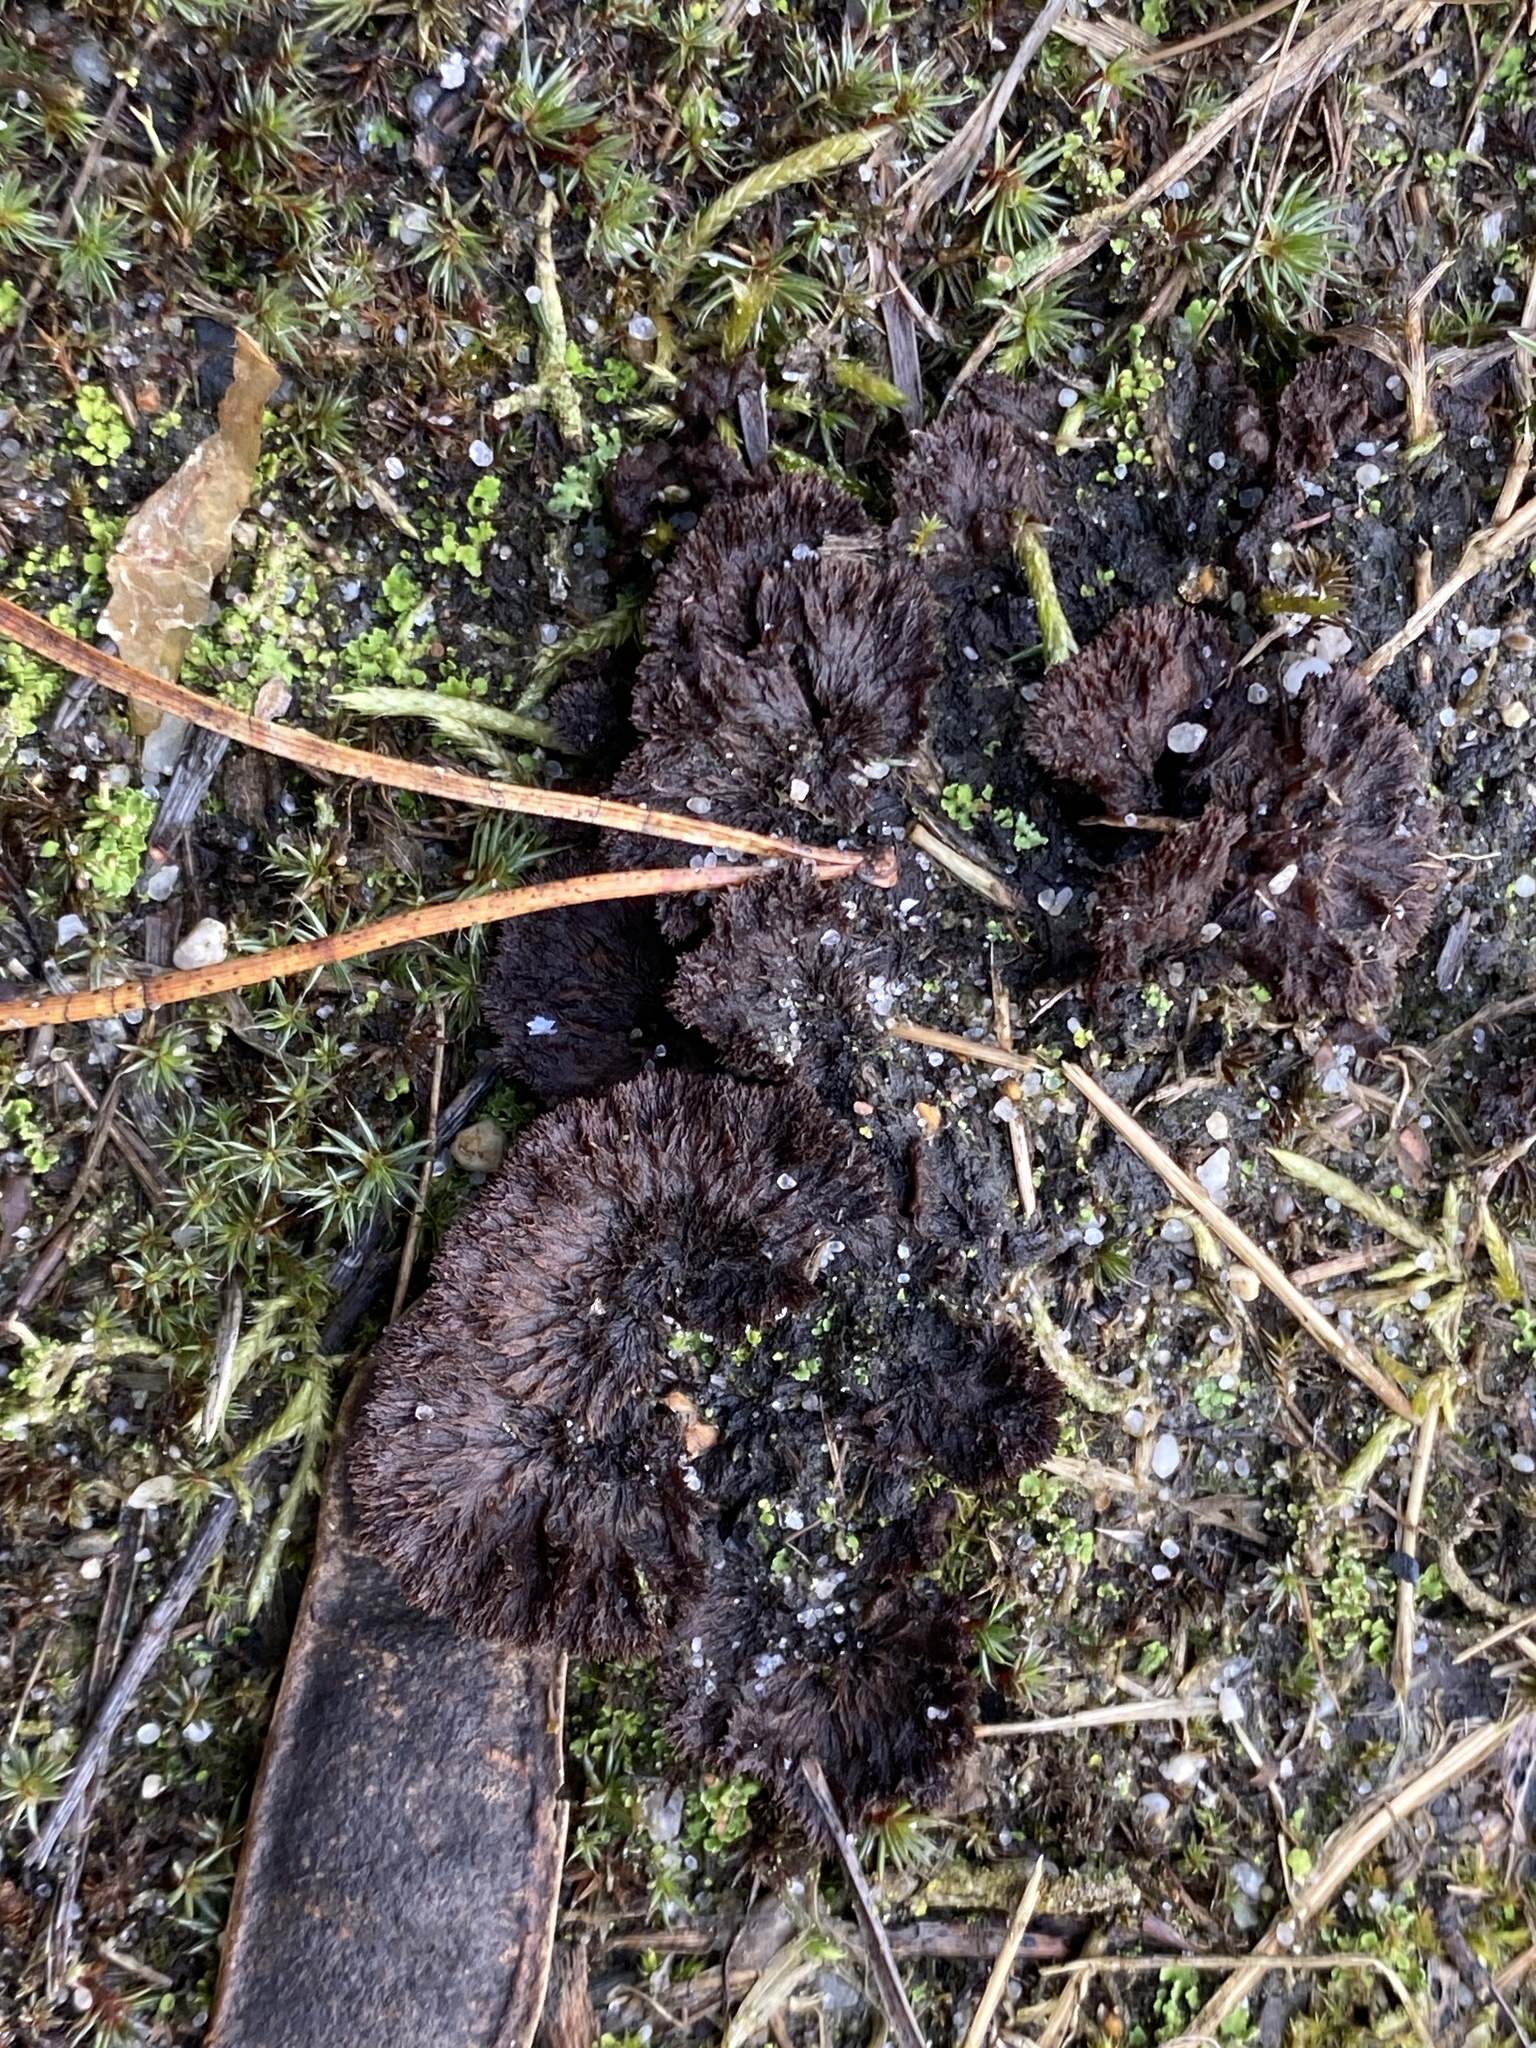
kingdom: Fungi
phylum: Basidiomycota
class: Agaricomycetes
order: Thelephorales
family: Thelephoraceae
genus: Thelephora
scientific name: Thelephora terrestris
